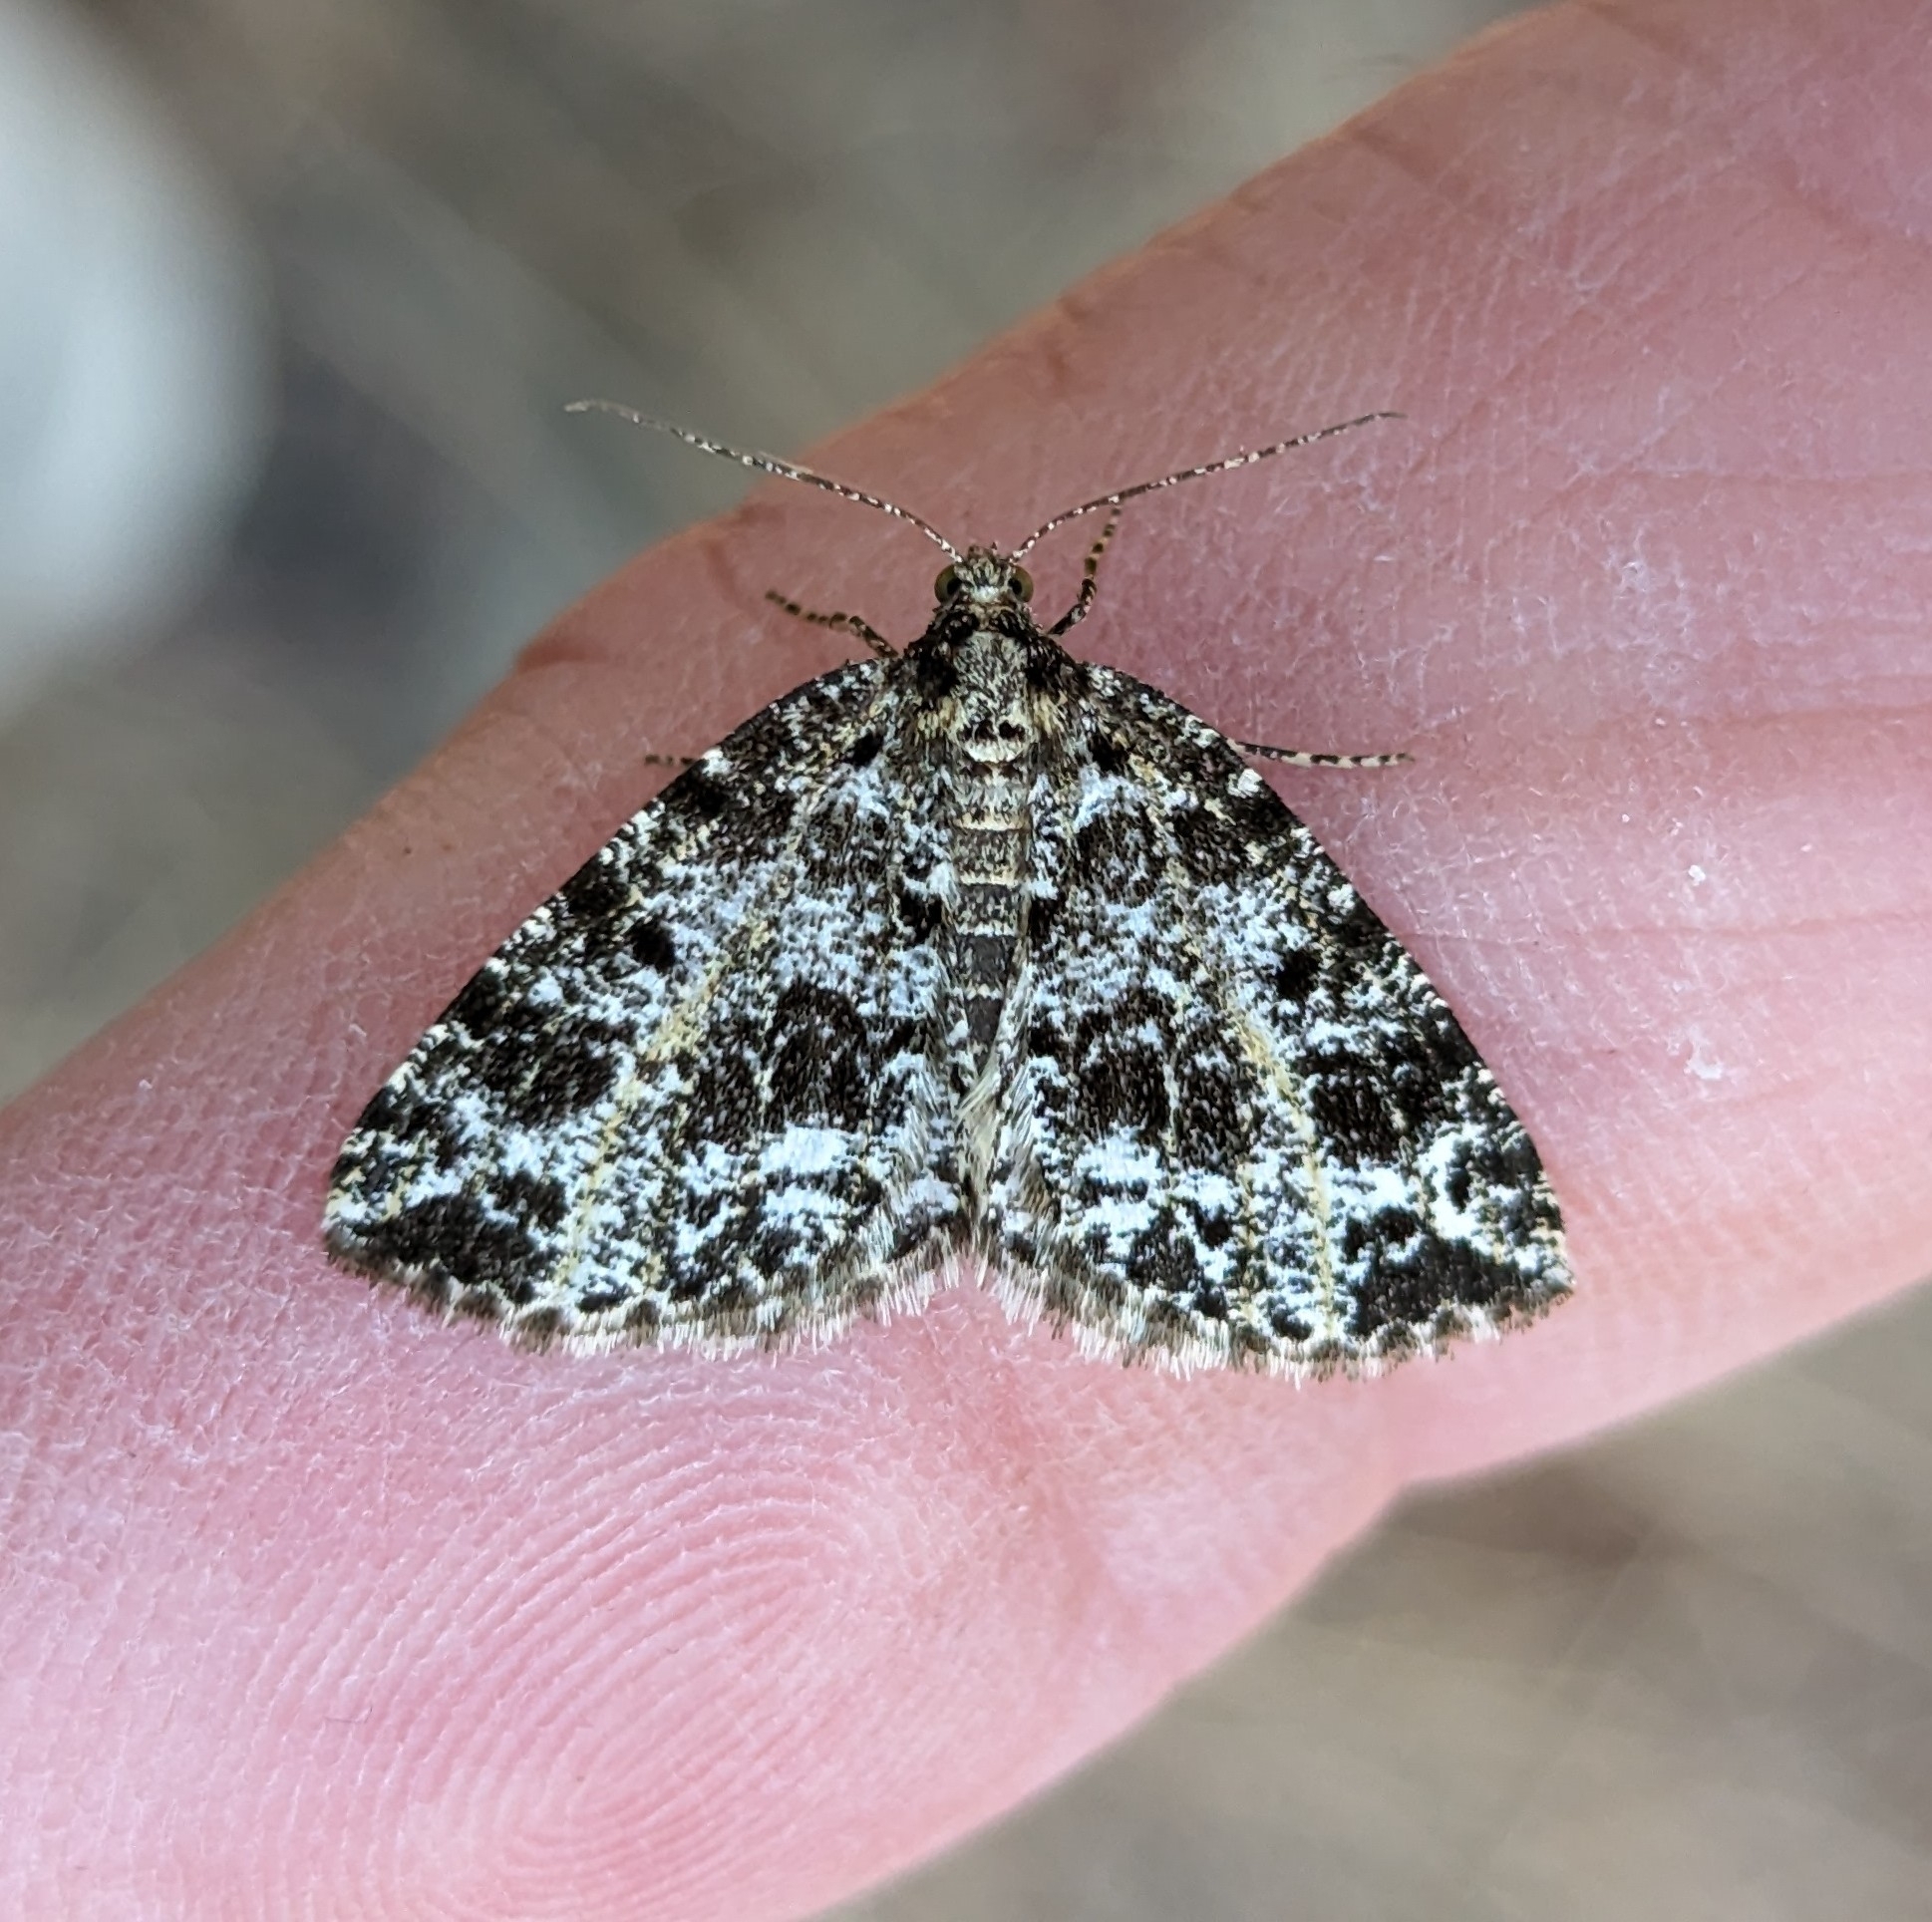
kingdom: Animalia
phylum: Arthropoda
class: Insecta
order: Lepidoptera
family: Geometridae
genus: Orthofidonia
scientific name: Orthofidonia tinctaria
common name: Marbled wave
